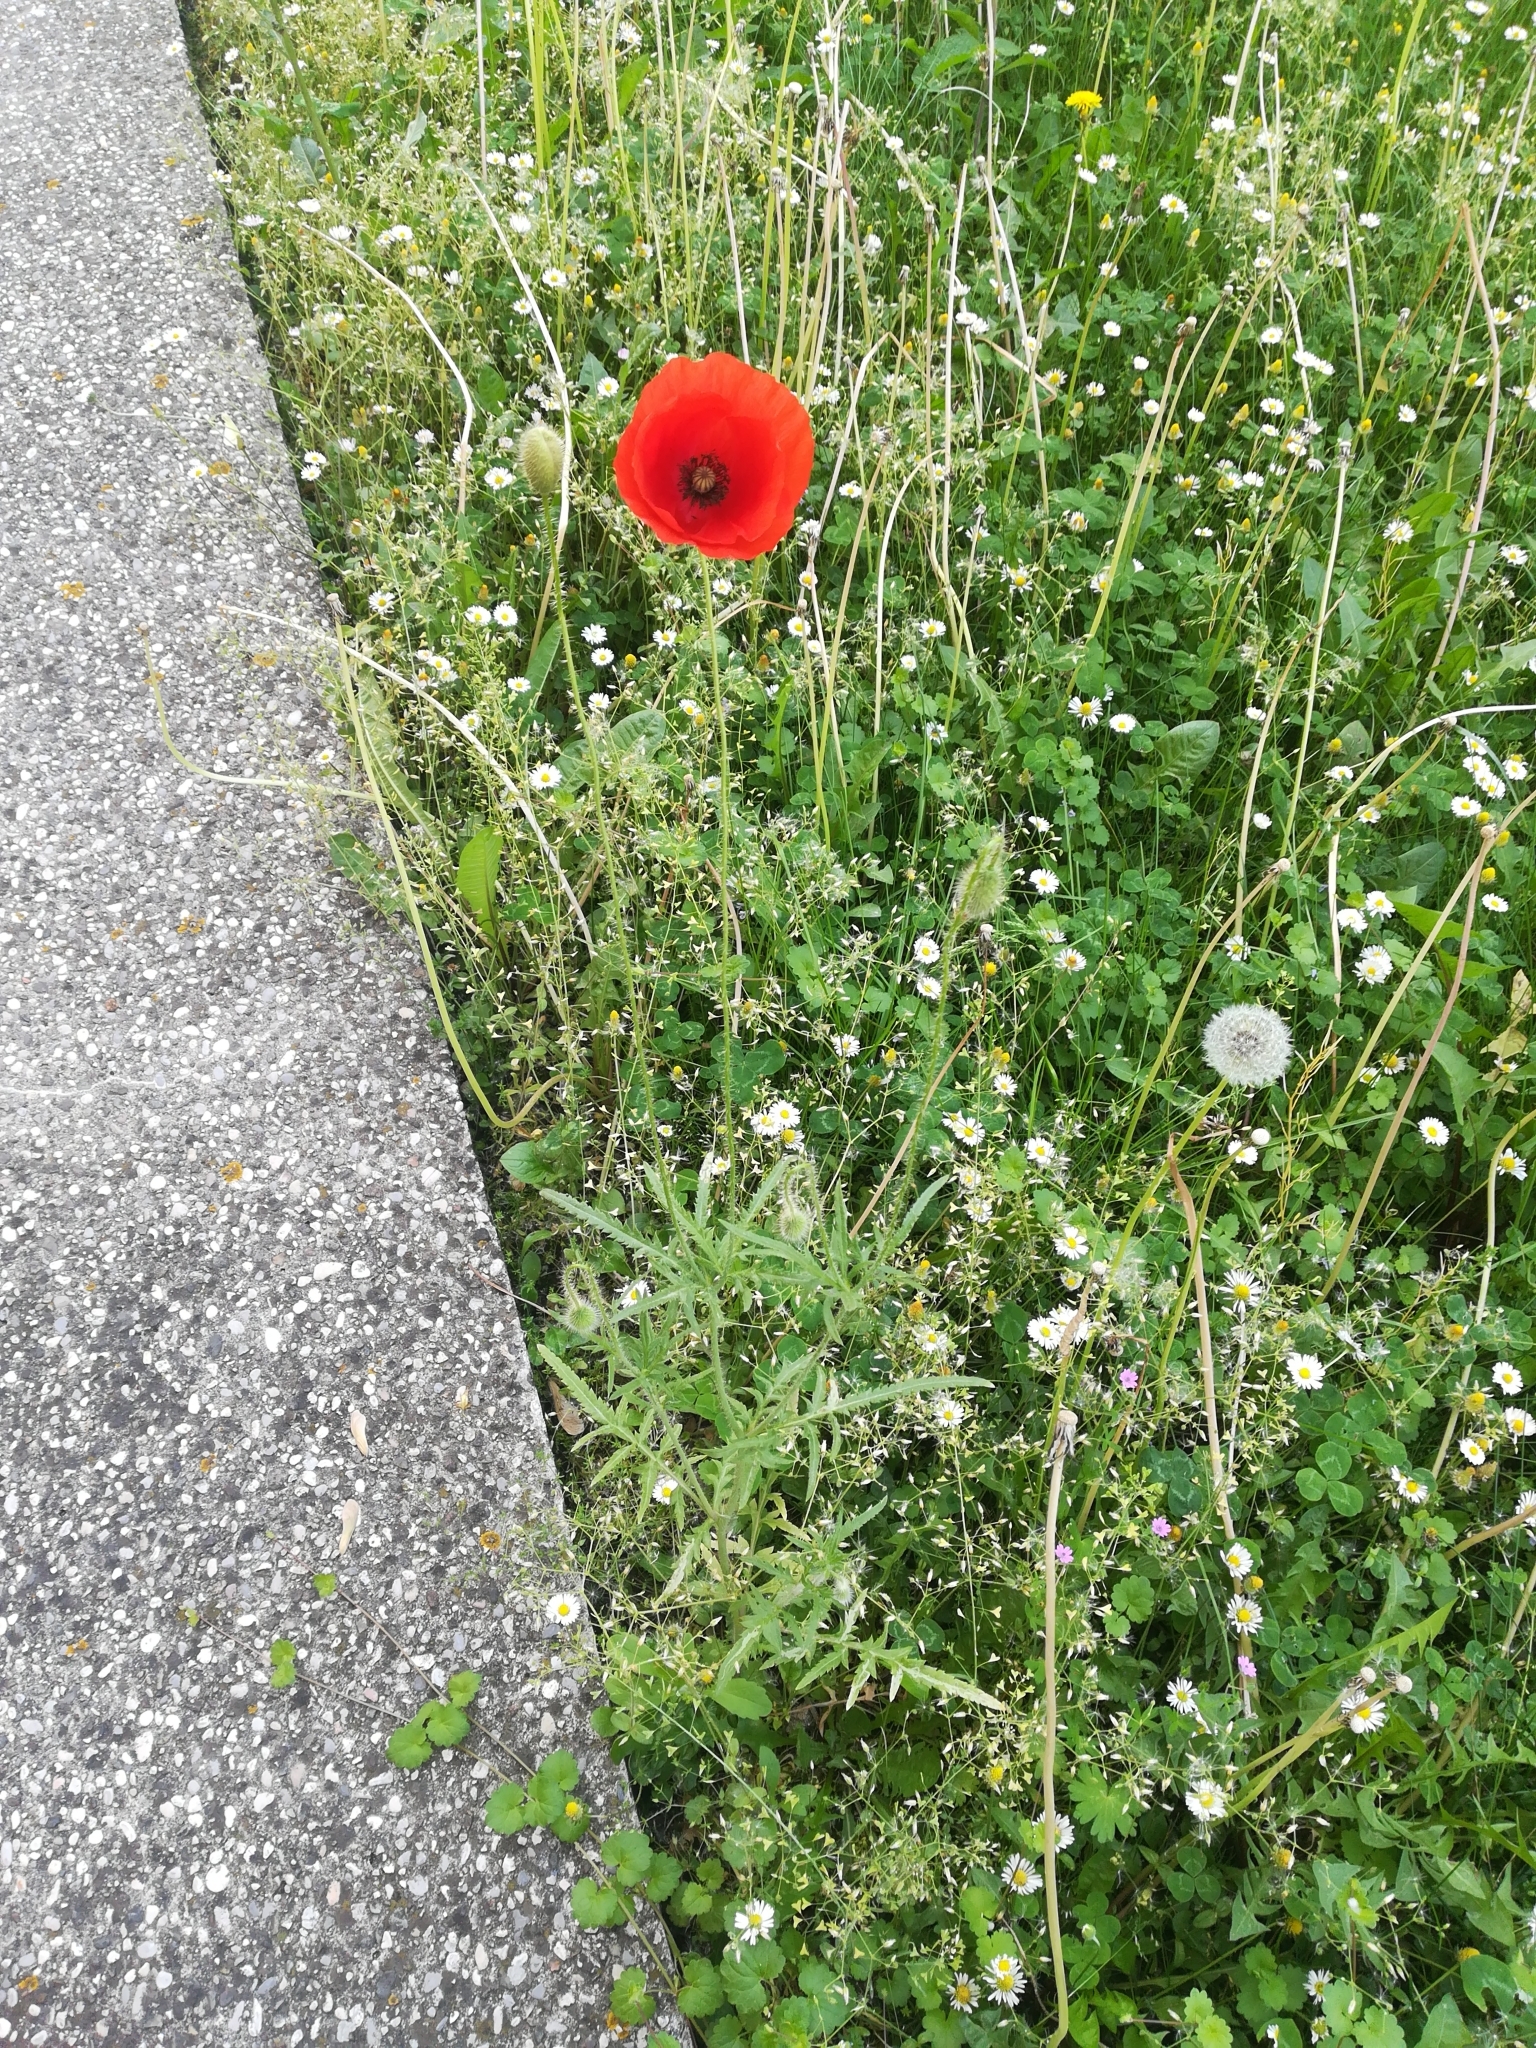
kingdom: Plantae
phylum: Tracheophyta
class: Magnoliopsida
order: Ranunculales
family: Papaveraceae
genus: Papaver
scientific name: Papaver rhoeas
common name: Corn poppy
